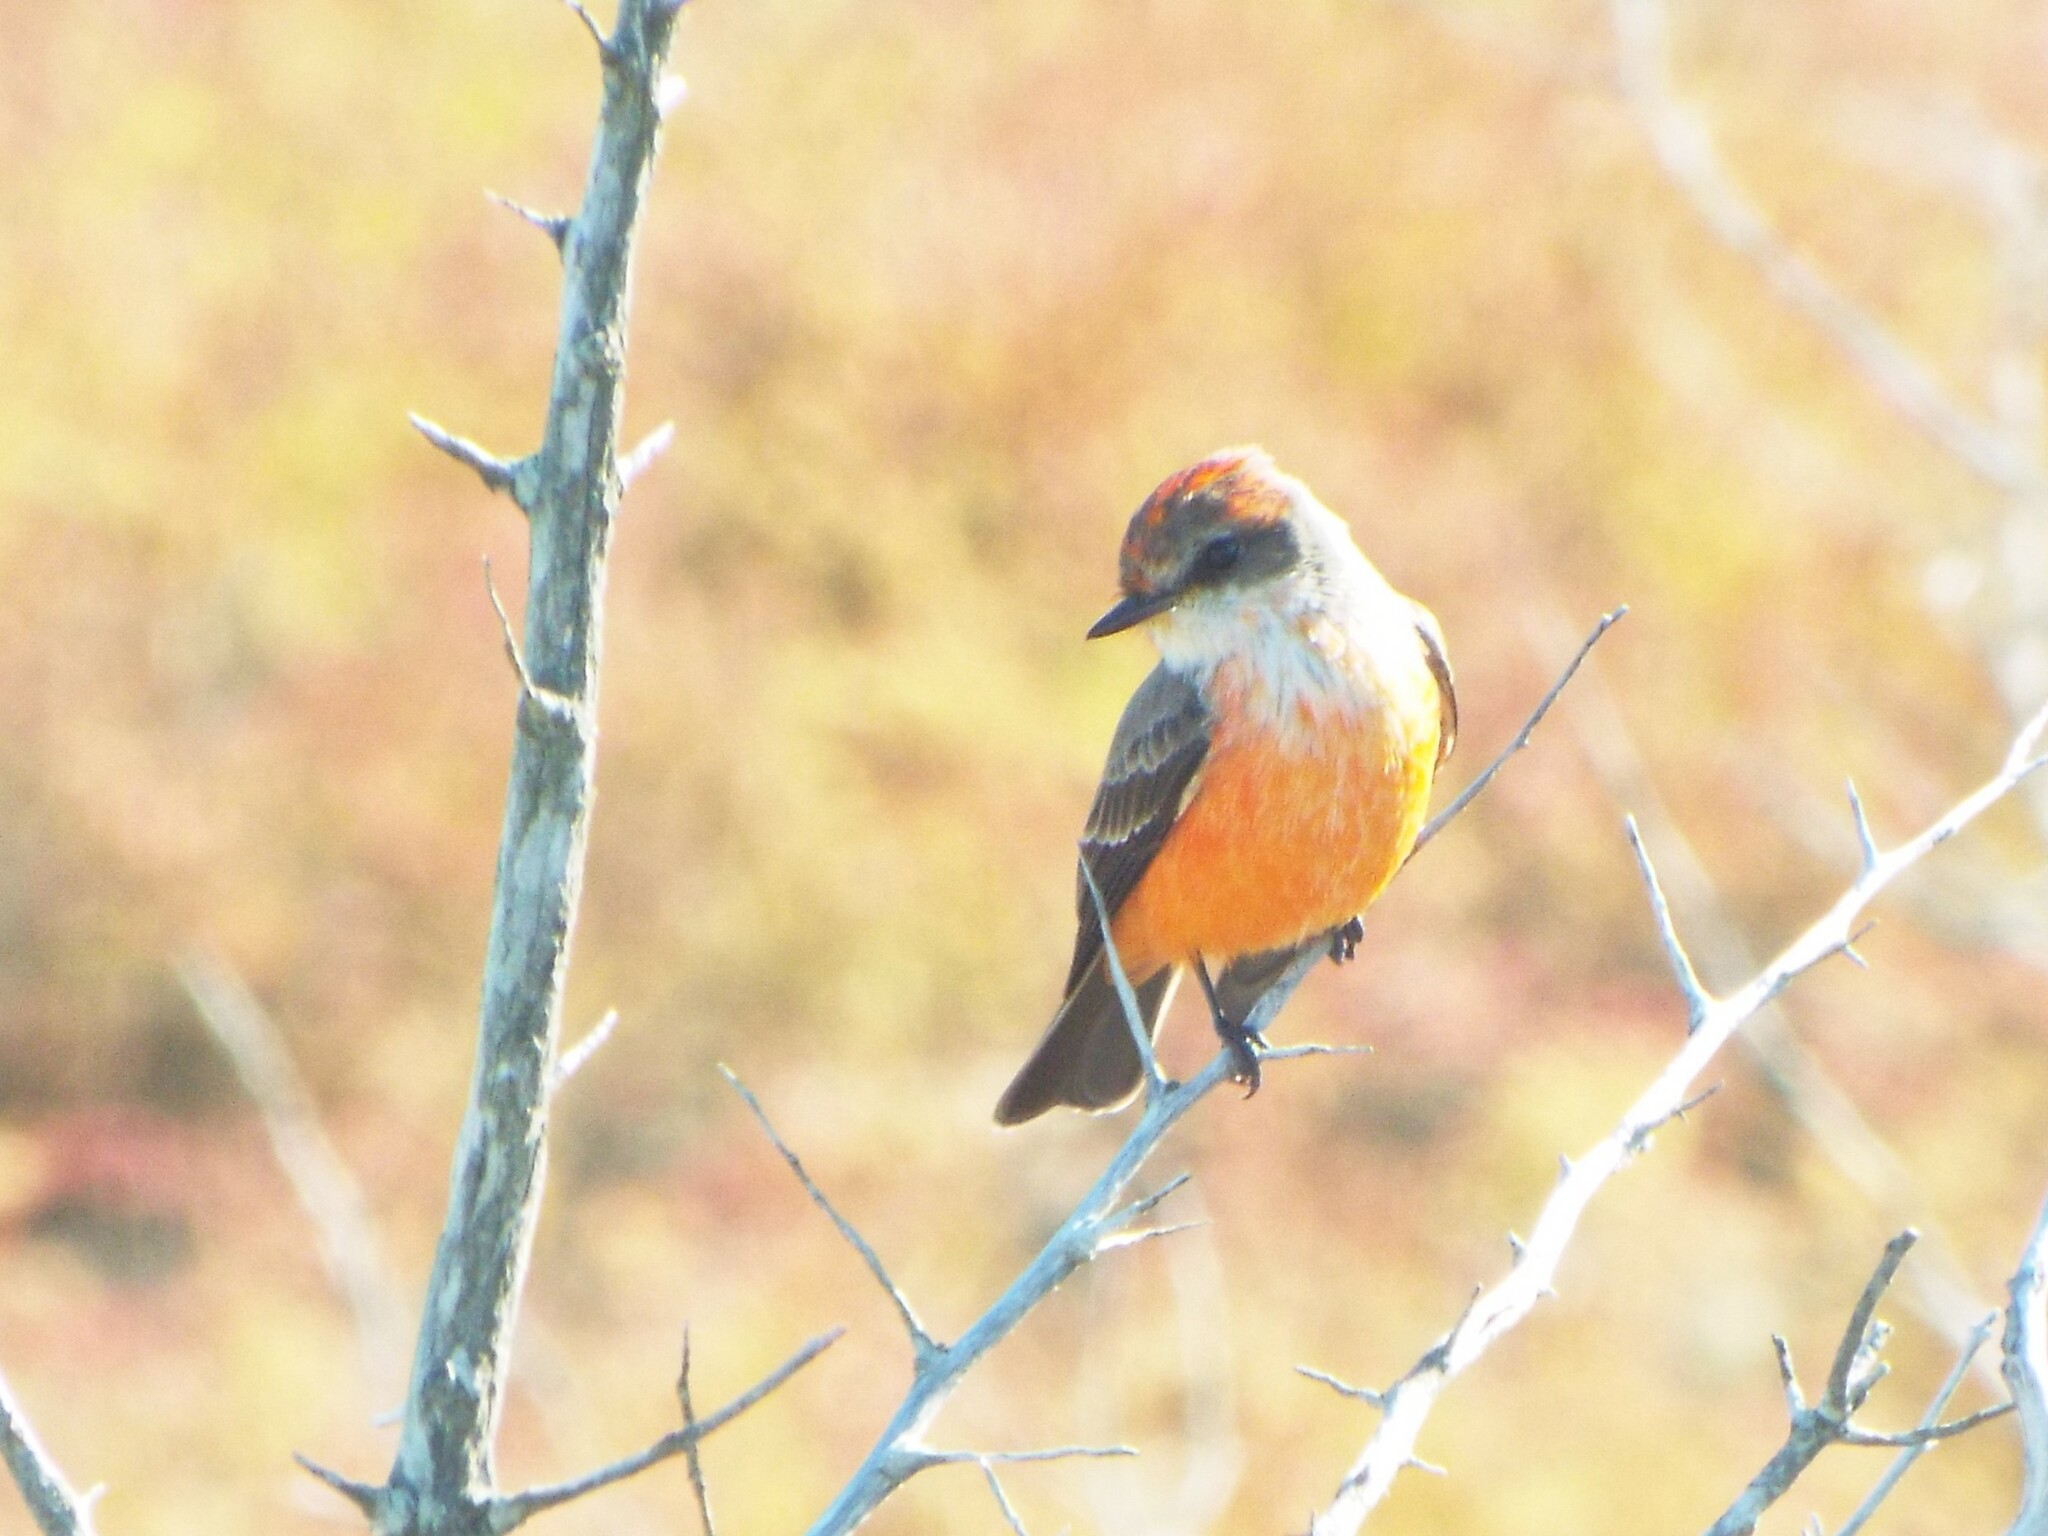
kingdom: Animalia
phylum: Chordata
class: Aves
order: Passeriformes
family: Tyrannidae
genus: Pyrocephalus
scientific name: Pyrocephalus rubinus
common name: Vermilion flycatcher
